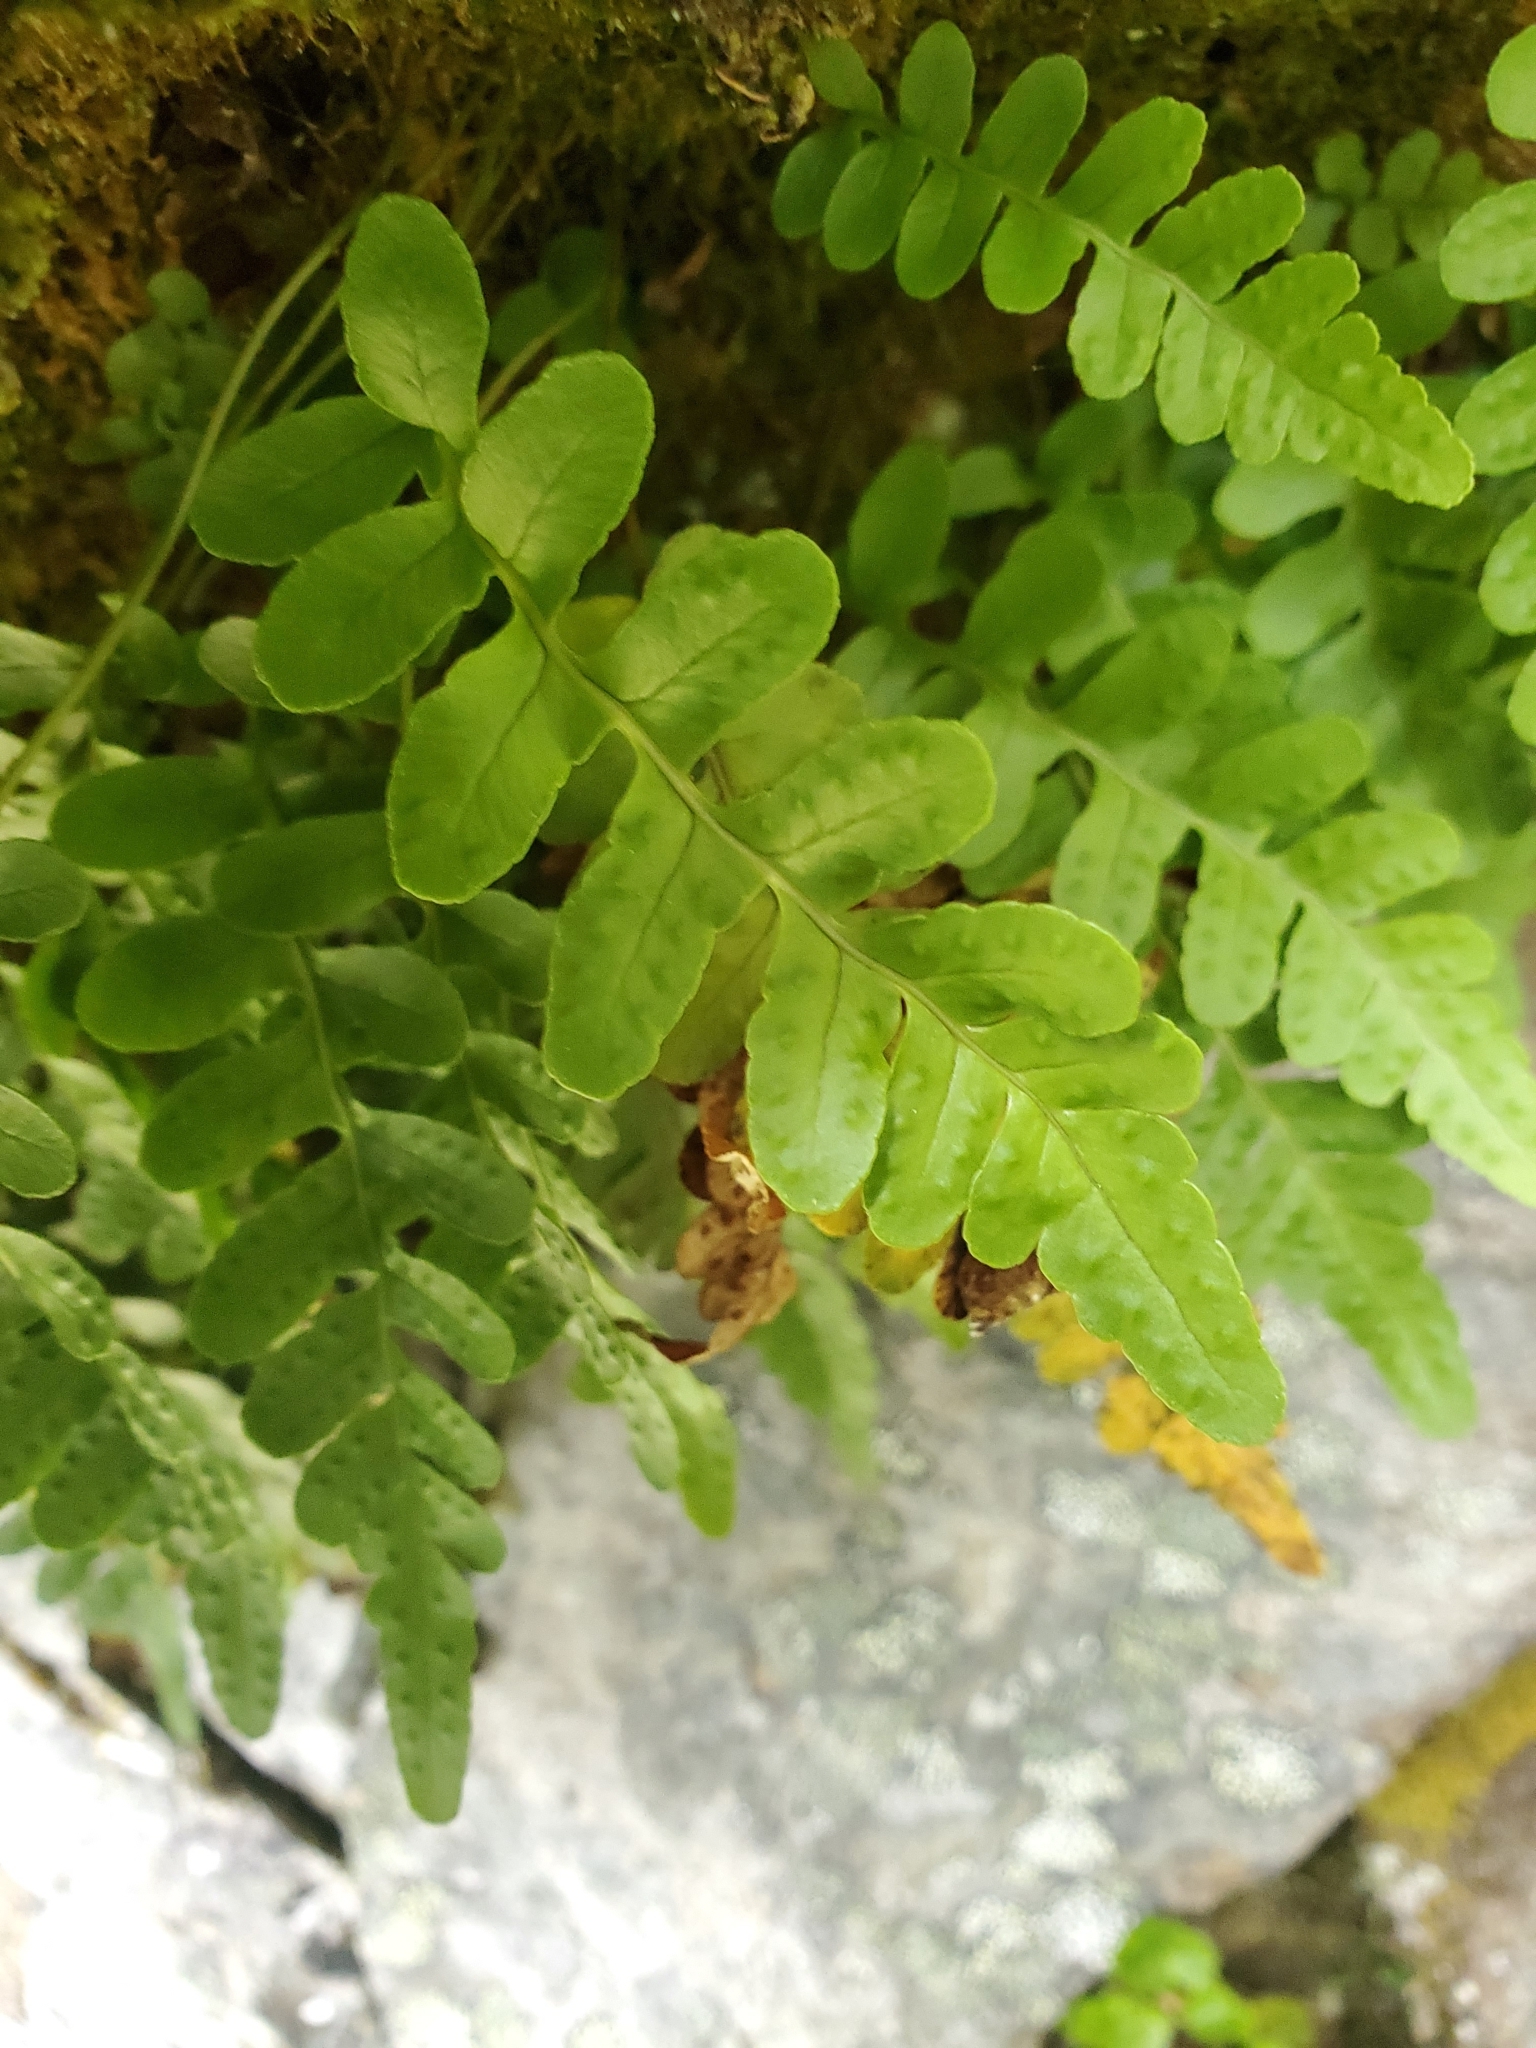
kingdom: Plantae
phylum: Tracheophyta
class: Polypodiopsida
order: Polypodiales
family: Polypodiaceae
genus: Polypodium
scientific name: Polypodium amorphum
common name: Pacific polypody
